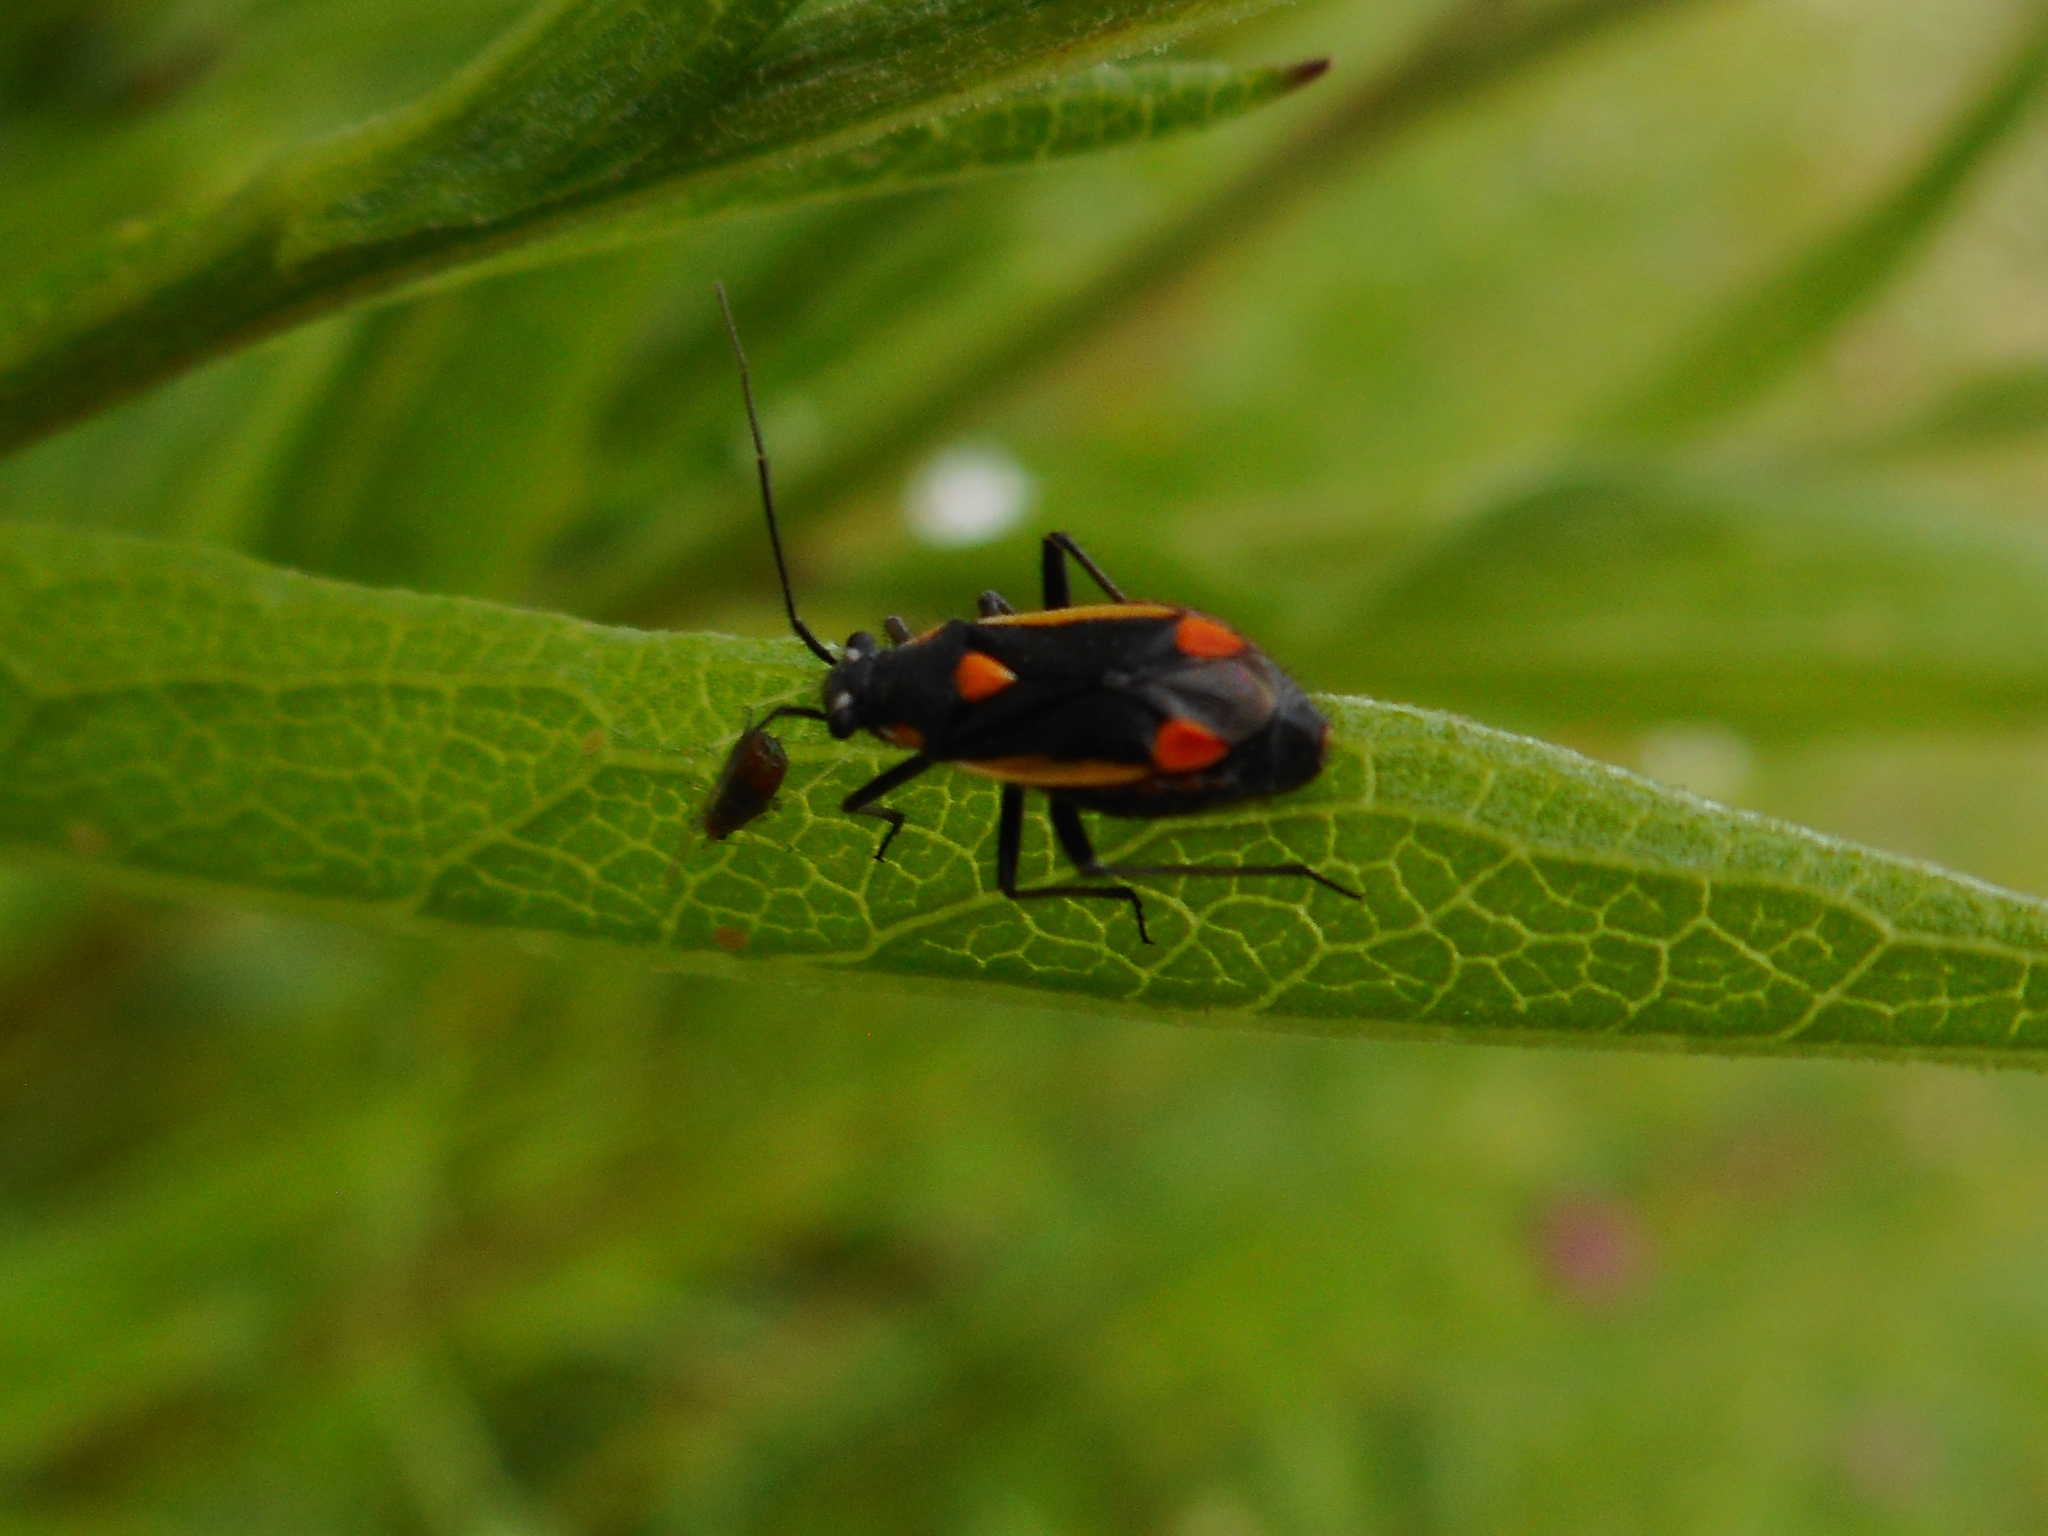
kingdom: Animalia
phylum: Arthropoda
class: Insecta
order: Hemiptera
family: Miridae
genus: Capsodes
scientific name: Capsodes gothicus
